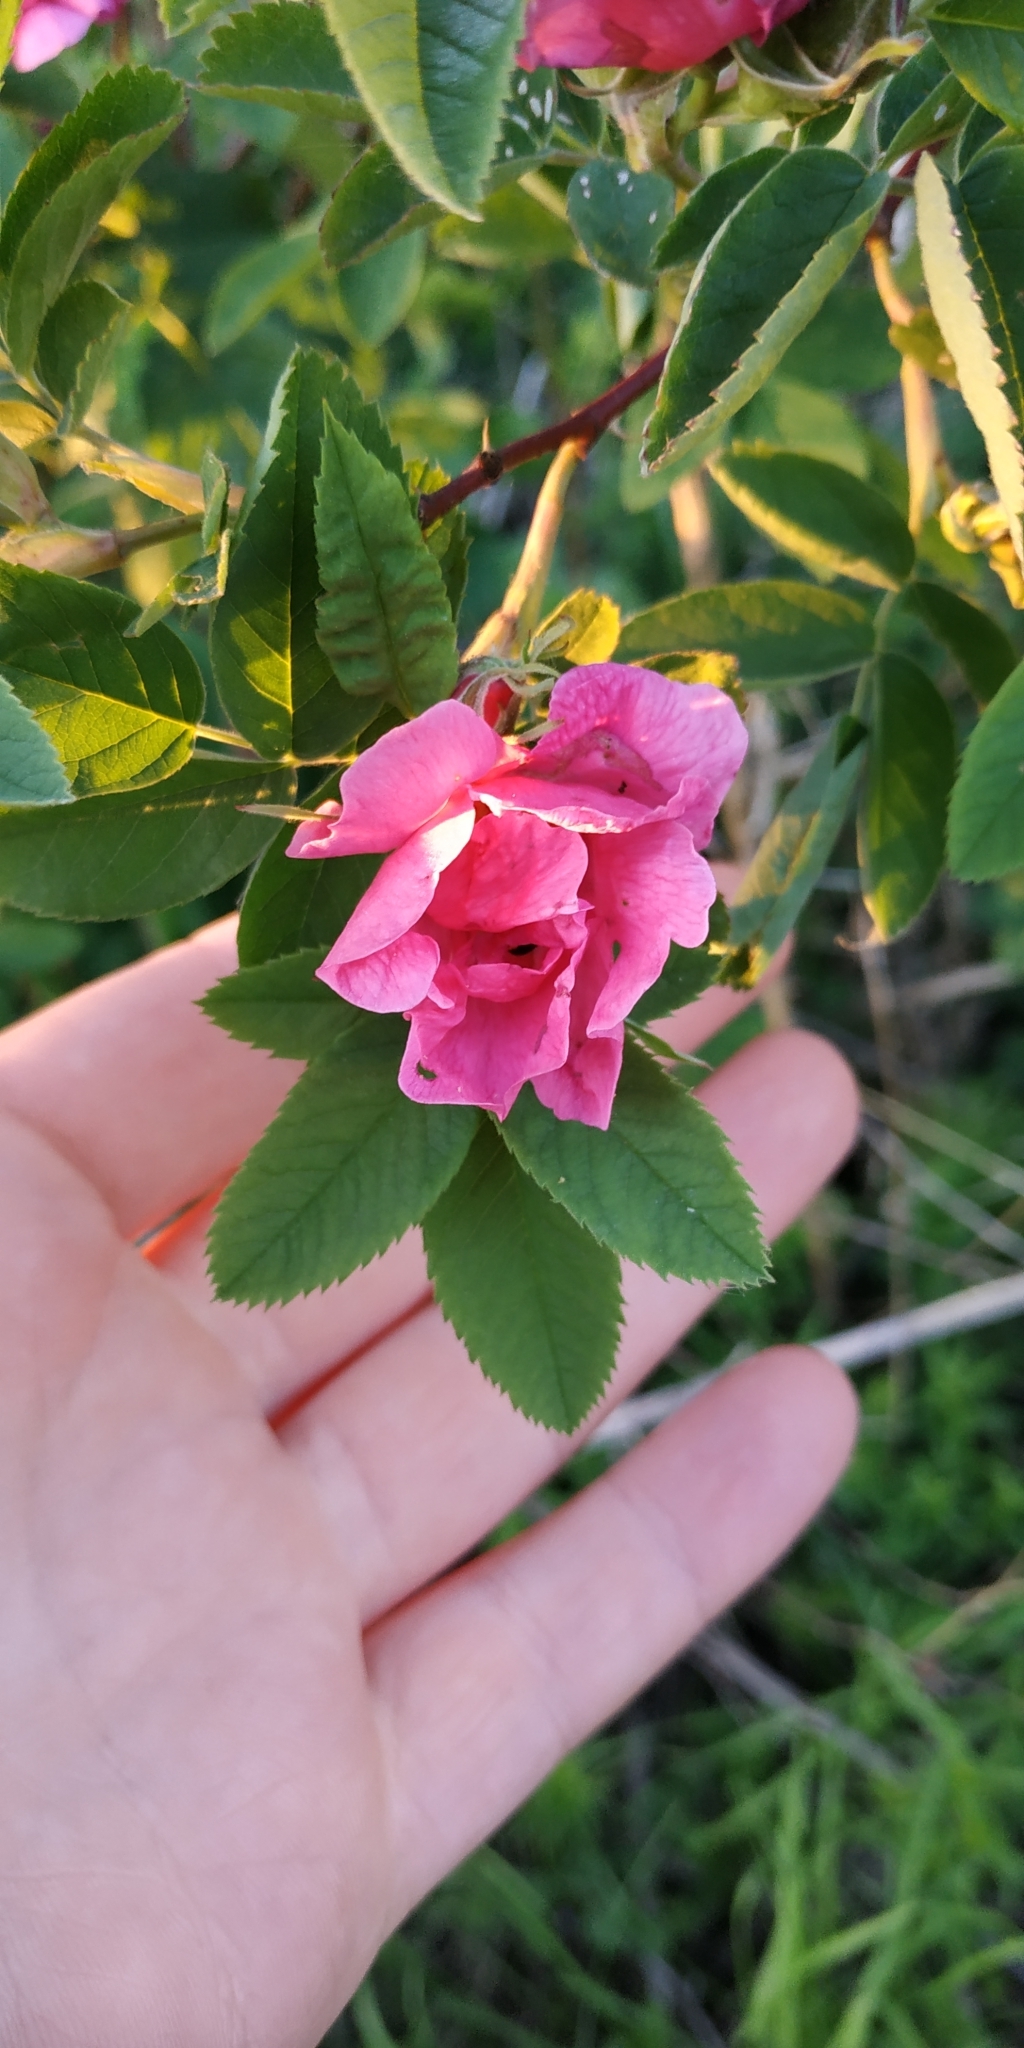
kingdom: Plantae
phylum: Tracheophyta
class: Magnoliopsida
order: Rosales
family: Rosaceae
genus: Rosa
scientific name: Rosa majalis
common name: Cinnamon rose
